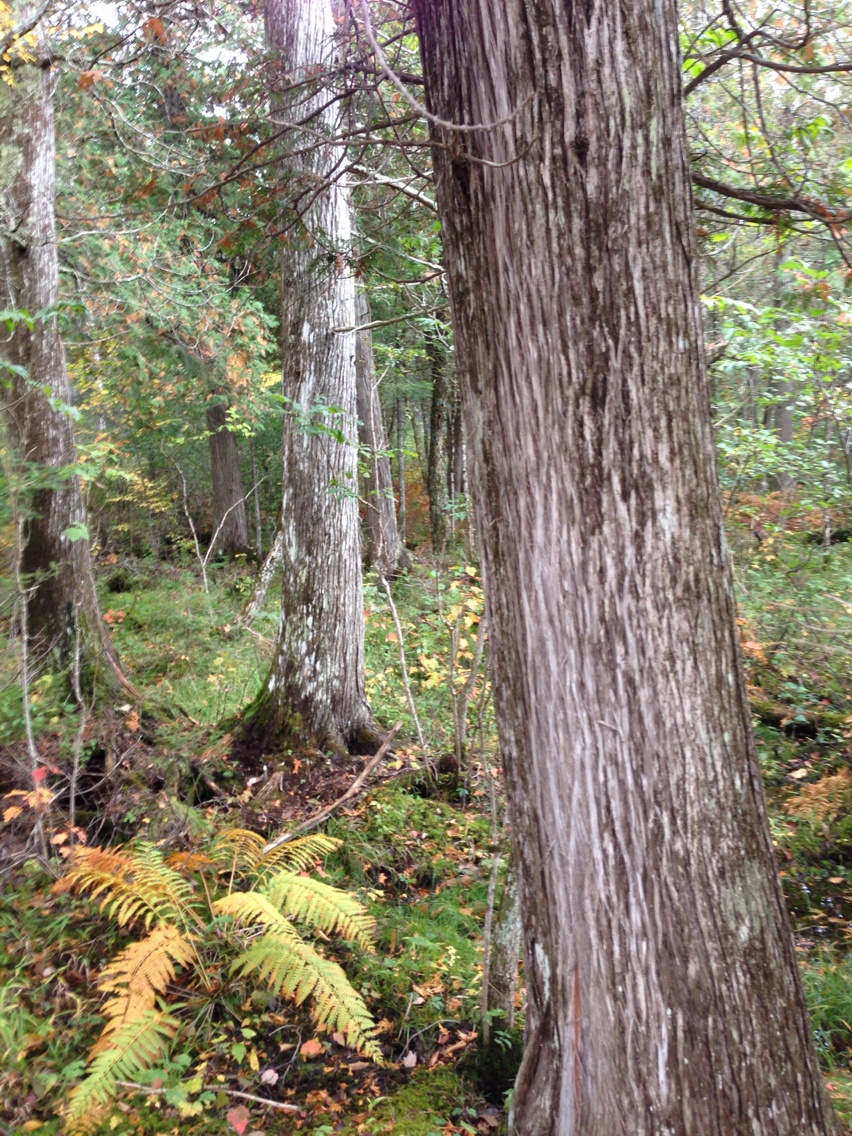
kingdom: Plantae
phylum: Tracheophyta
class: Pinopsida
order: Pinales
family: Cupressaceae
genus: Thuja
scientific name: Thuja occidentalis
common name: Northern white-cedar
